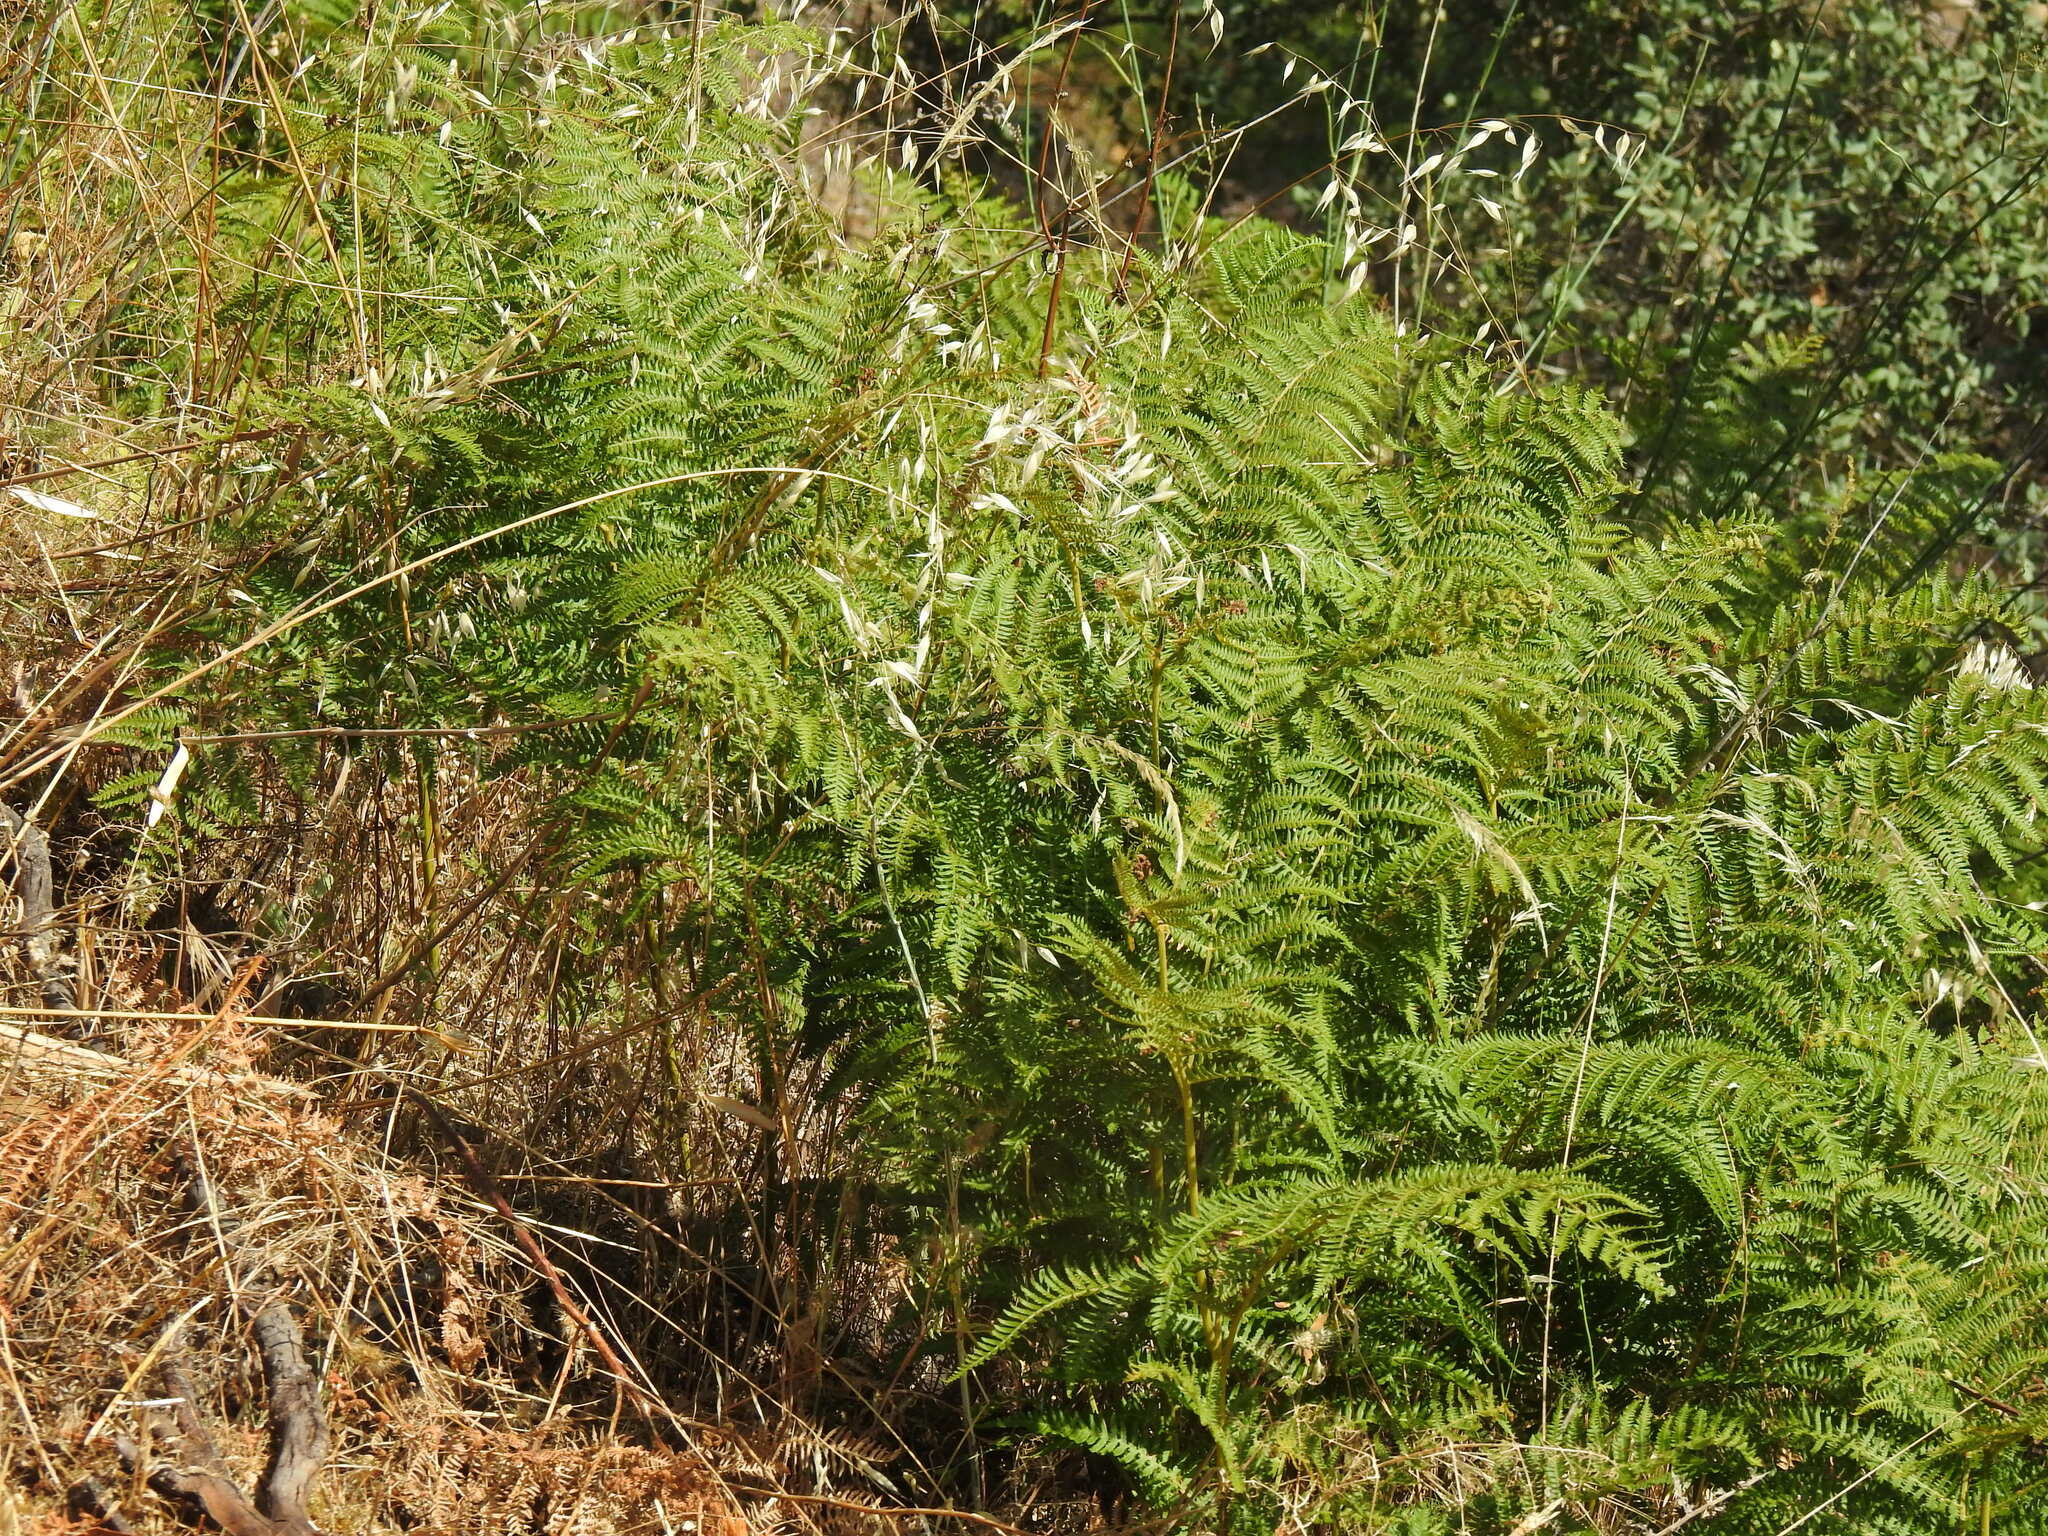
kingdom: Plantae
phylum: Tracheophyta
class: Polypodiopsida
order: Polypodiales
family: Dennstaedtiaceae
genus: Pteridium
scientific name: Pteridium aquilinum
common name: Bracken
